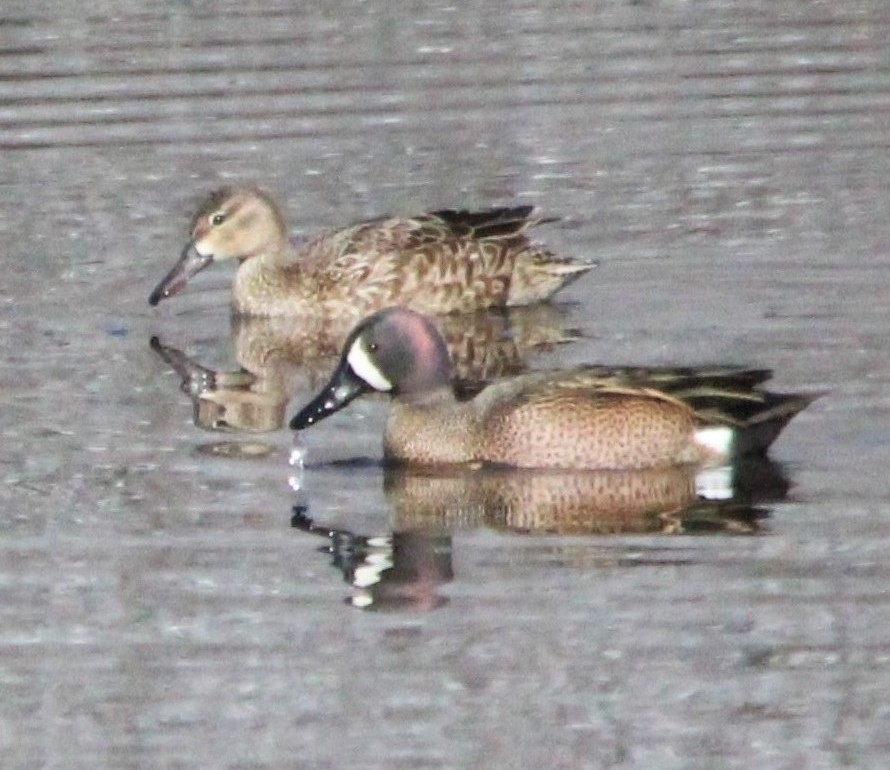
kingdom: Animalia
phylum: Chordata
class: Aves
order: Anseriformes
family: Anatidae
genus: Spatula
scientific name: Spatula discors
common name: Blue-winged teal
